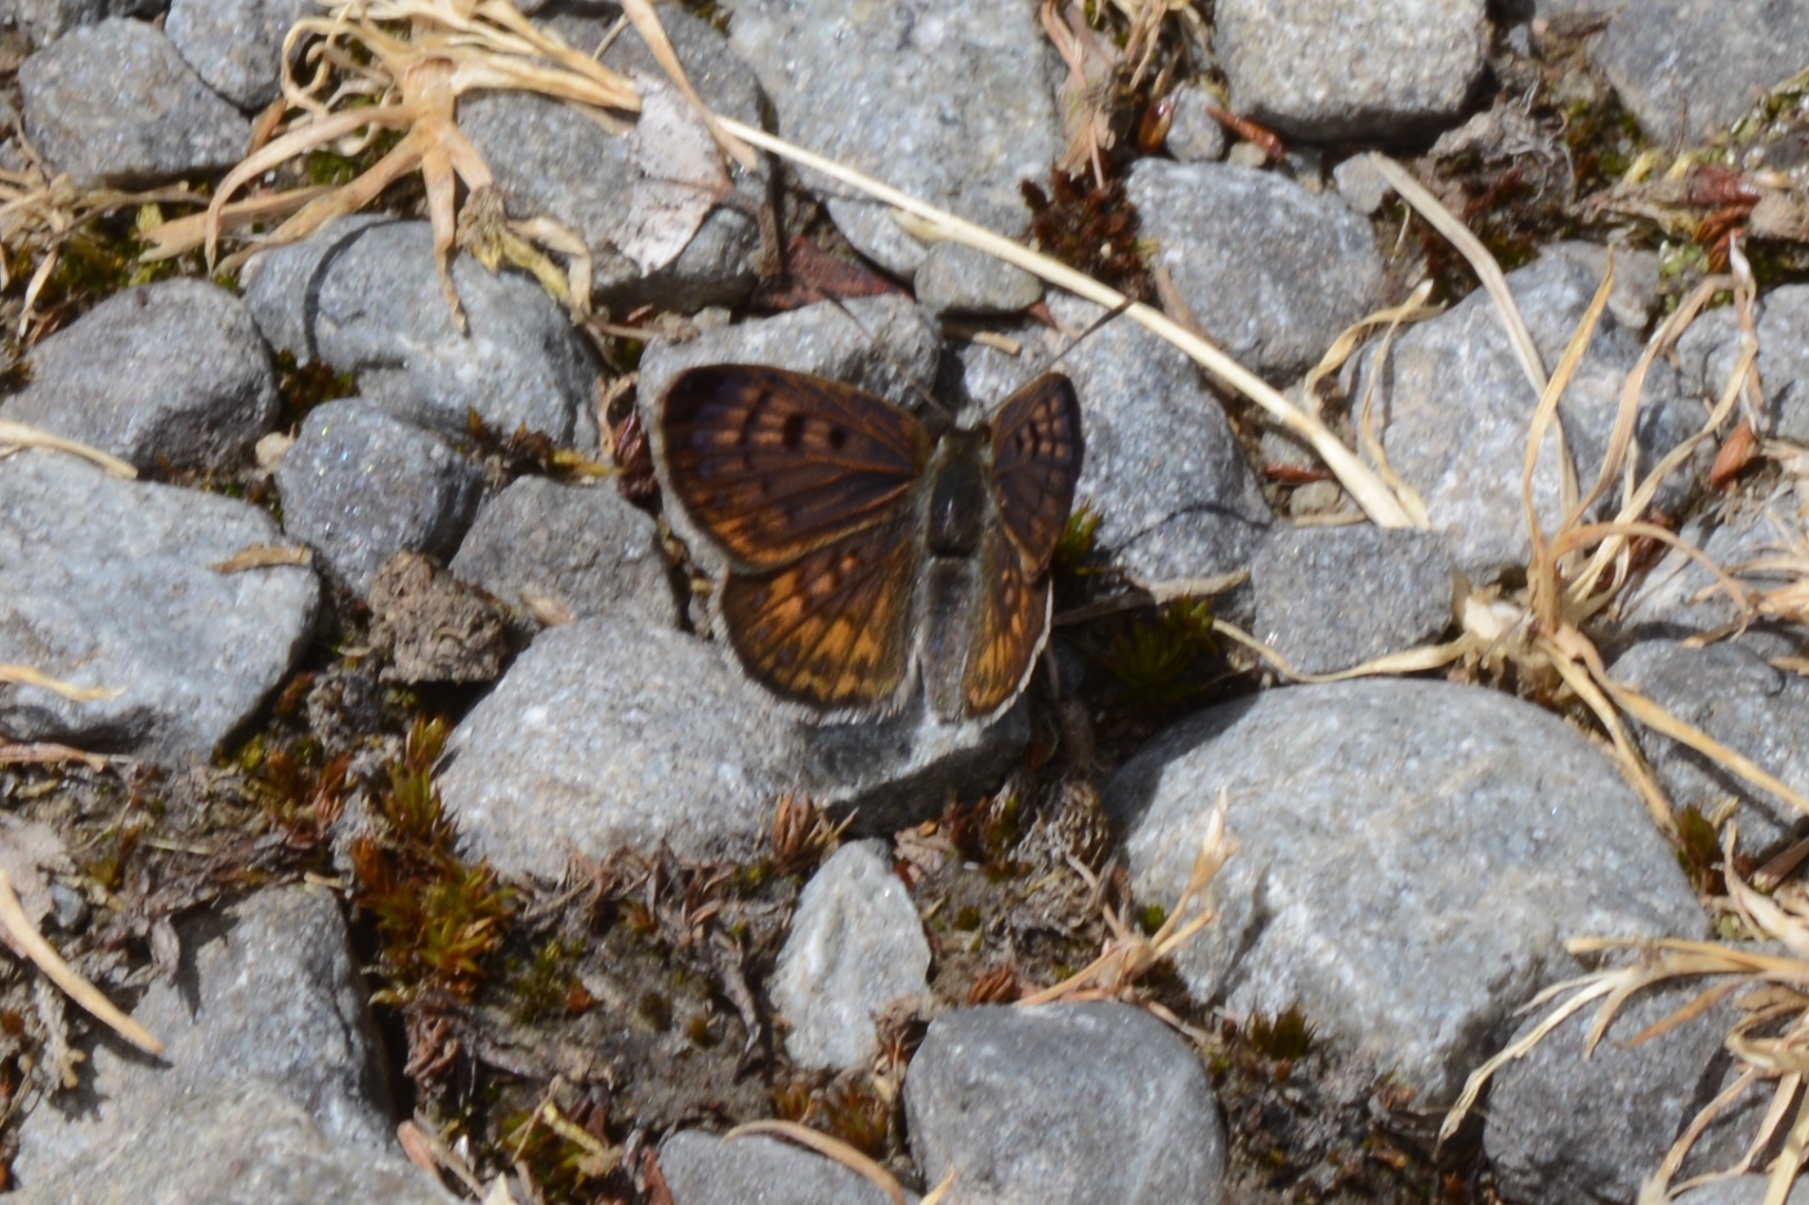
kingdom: Animalia
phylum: Arthropoda
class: Insecta
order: Lepidoptera
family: Lycaenidae
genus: Lycaena
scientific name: Lycaena boldenarum
